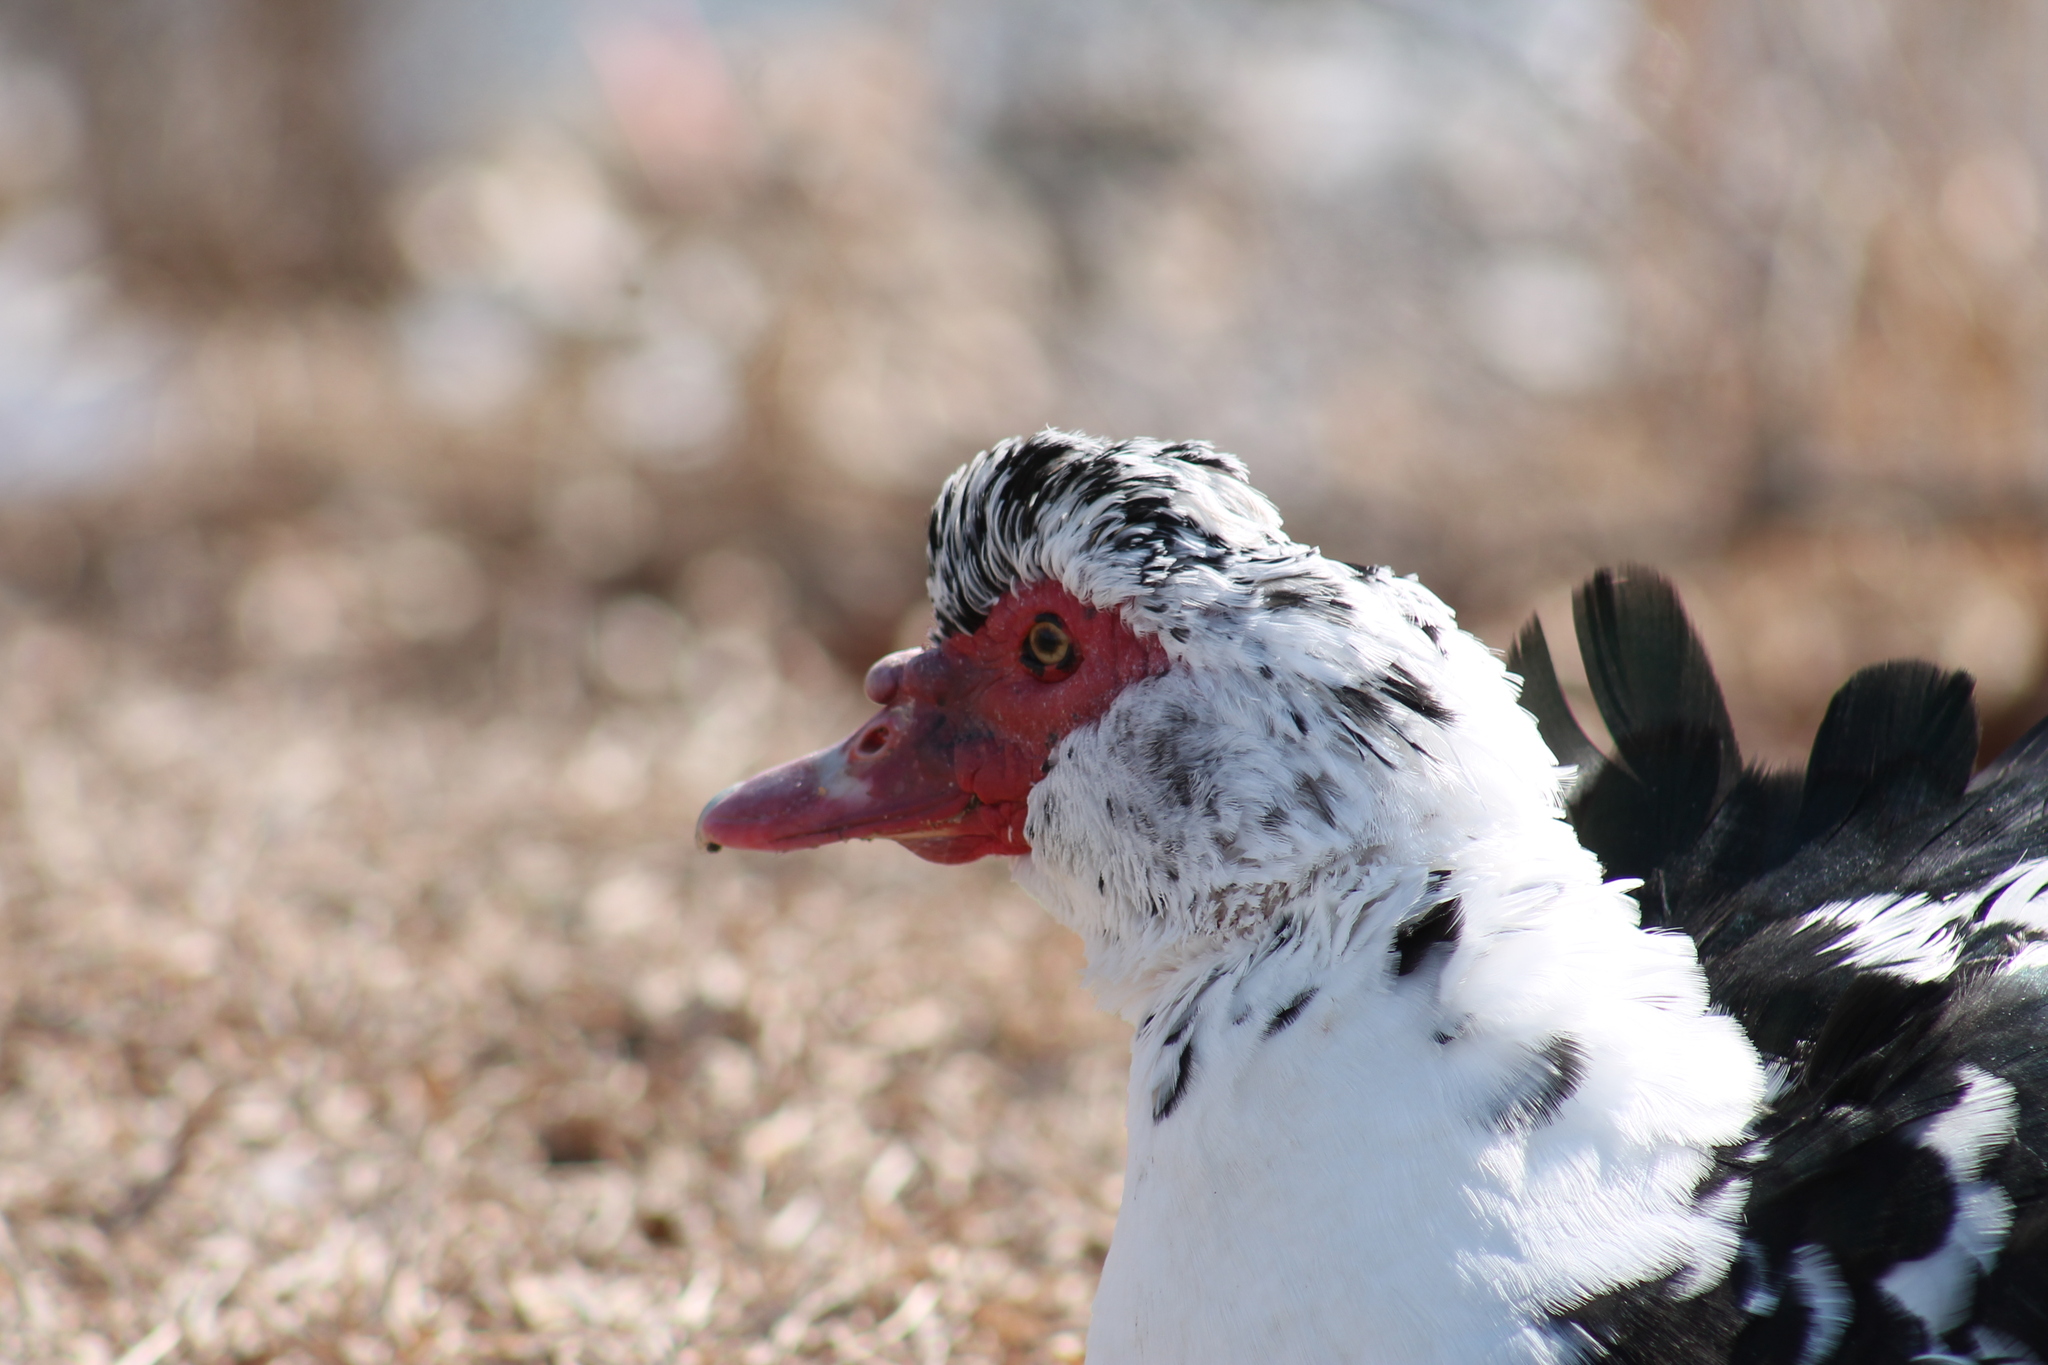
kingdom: Animalia
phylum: Chordata
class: Aves
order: Anseriformes
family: Anatidae
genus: Cairina
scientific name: Cairina moschata
